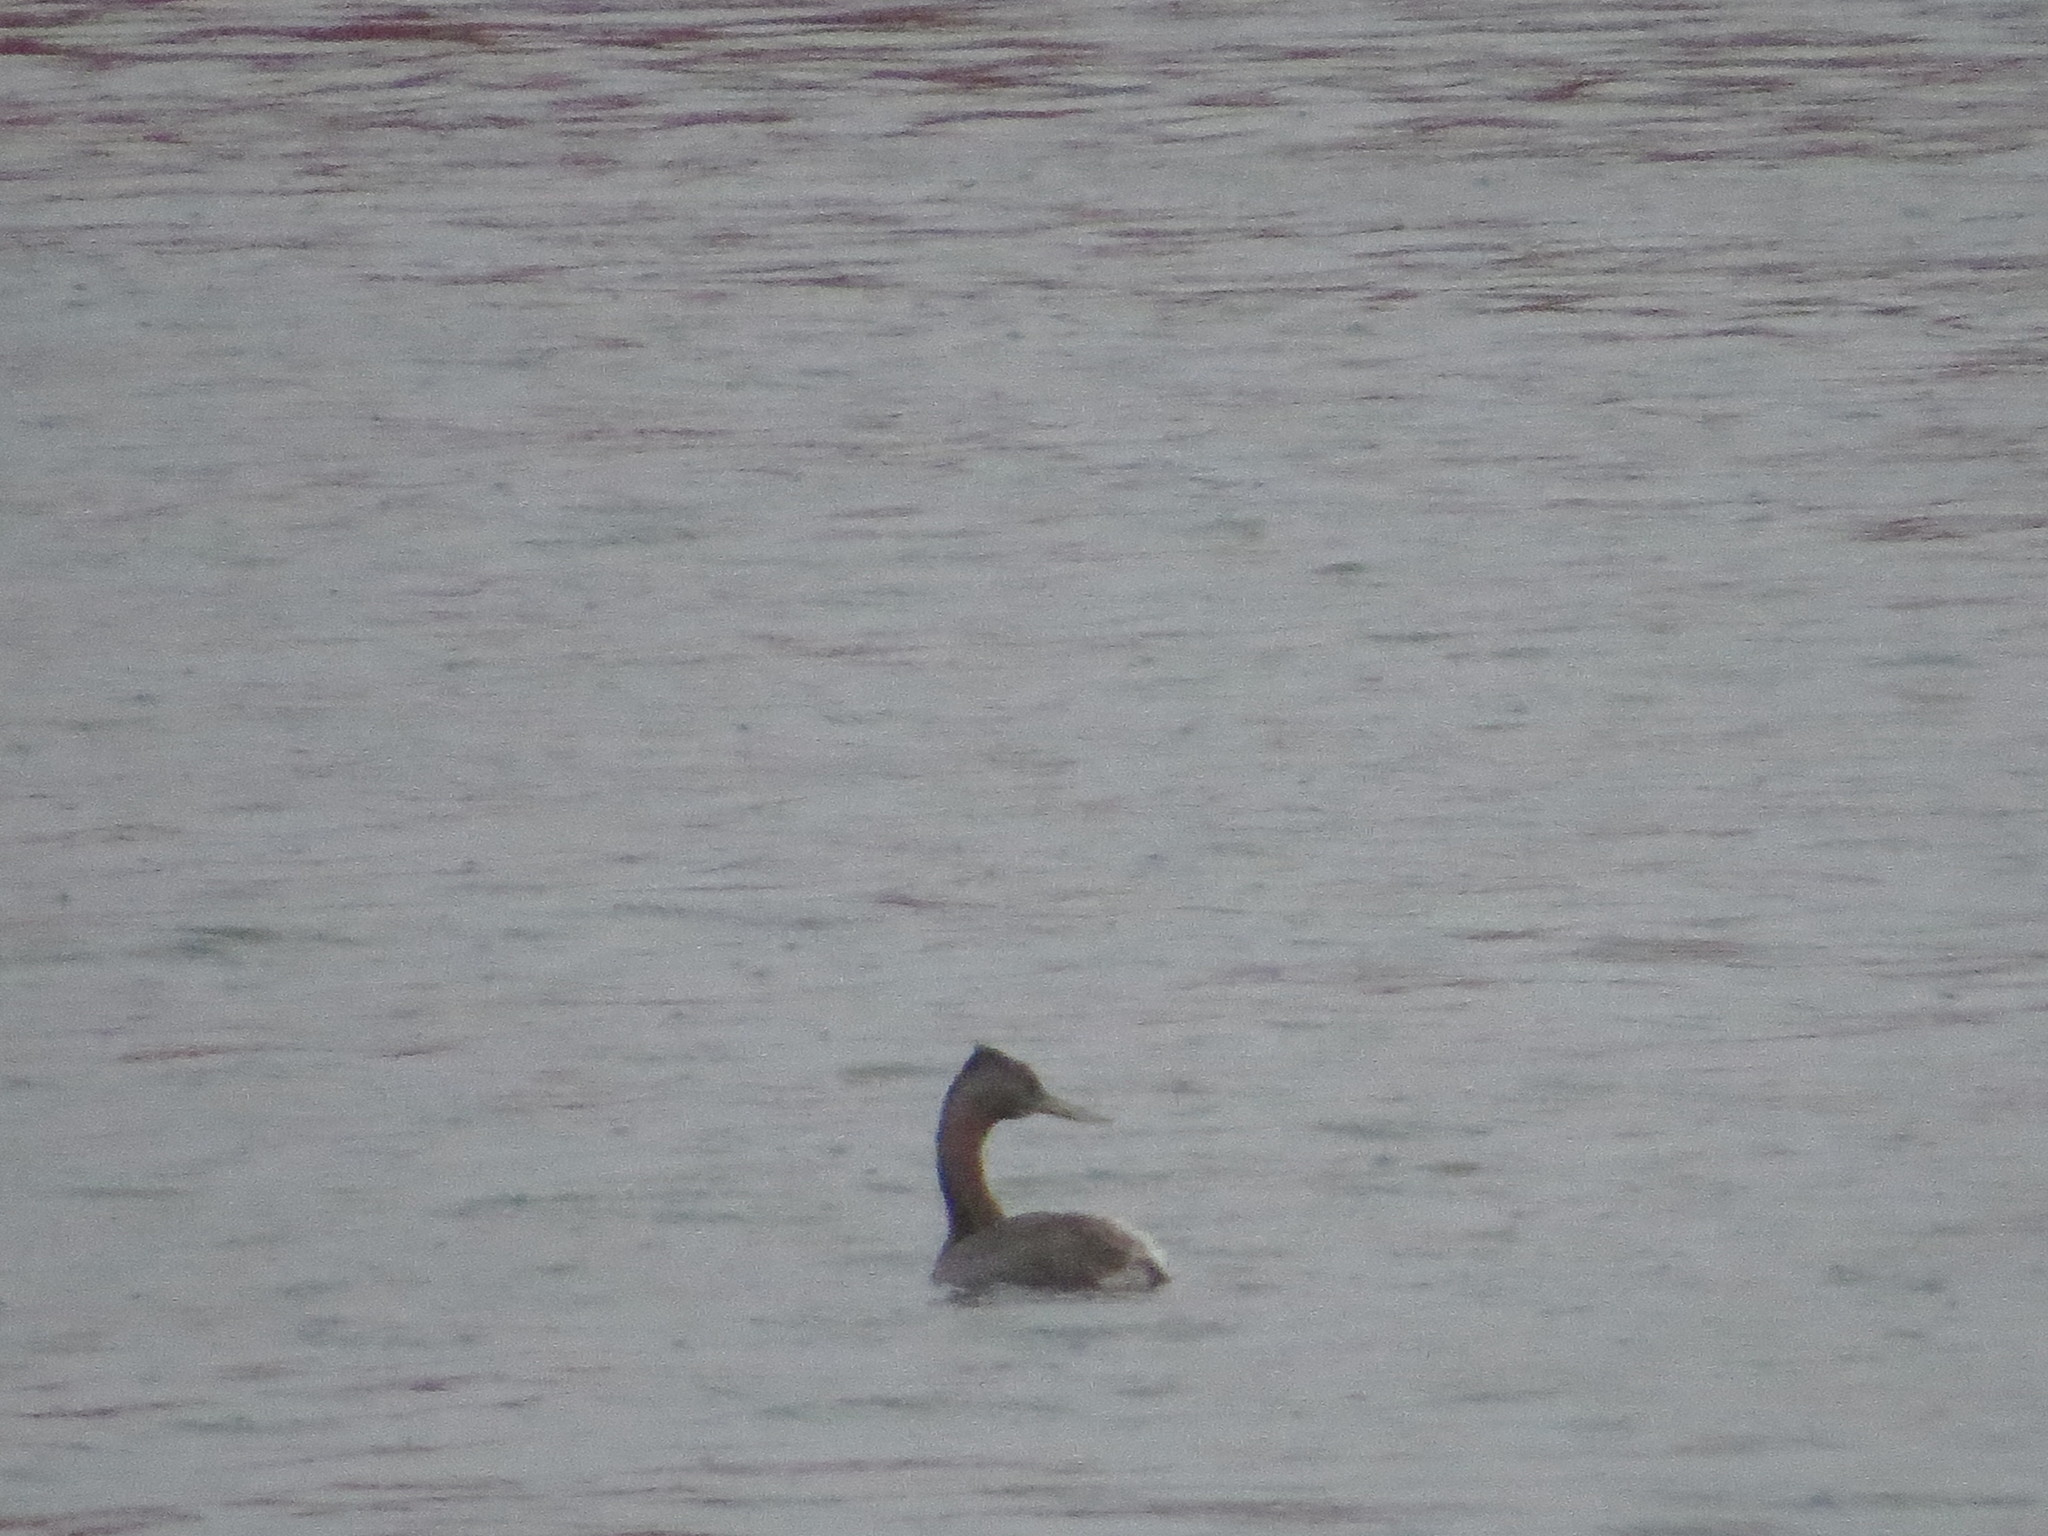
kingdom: Animalia
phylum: Chordata
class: Aves
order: Podicipediformes
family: Podicipedidae
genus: Podiceps
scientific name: Podiceps major
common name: Great grebe
